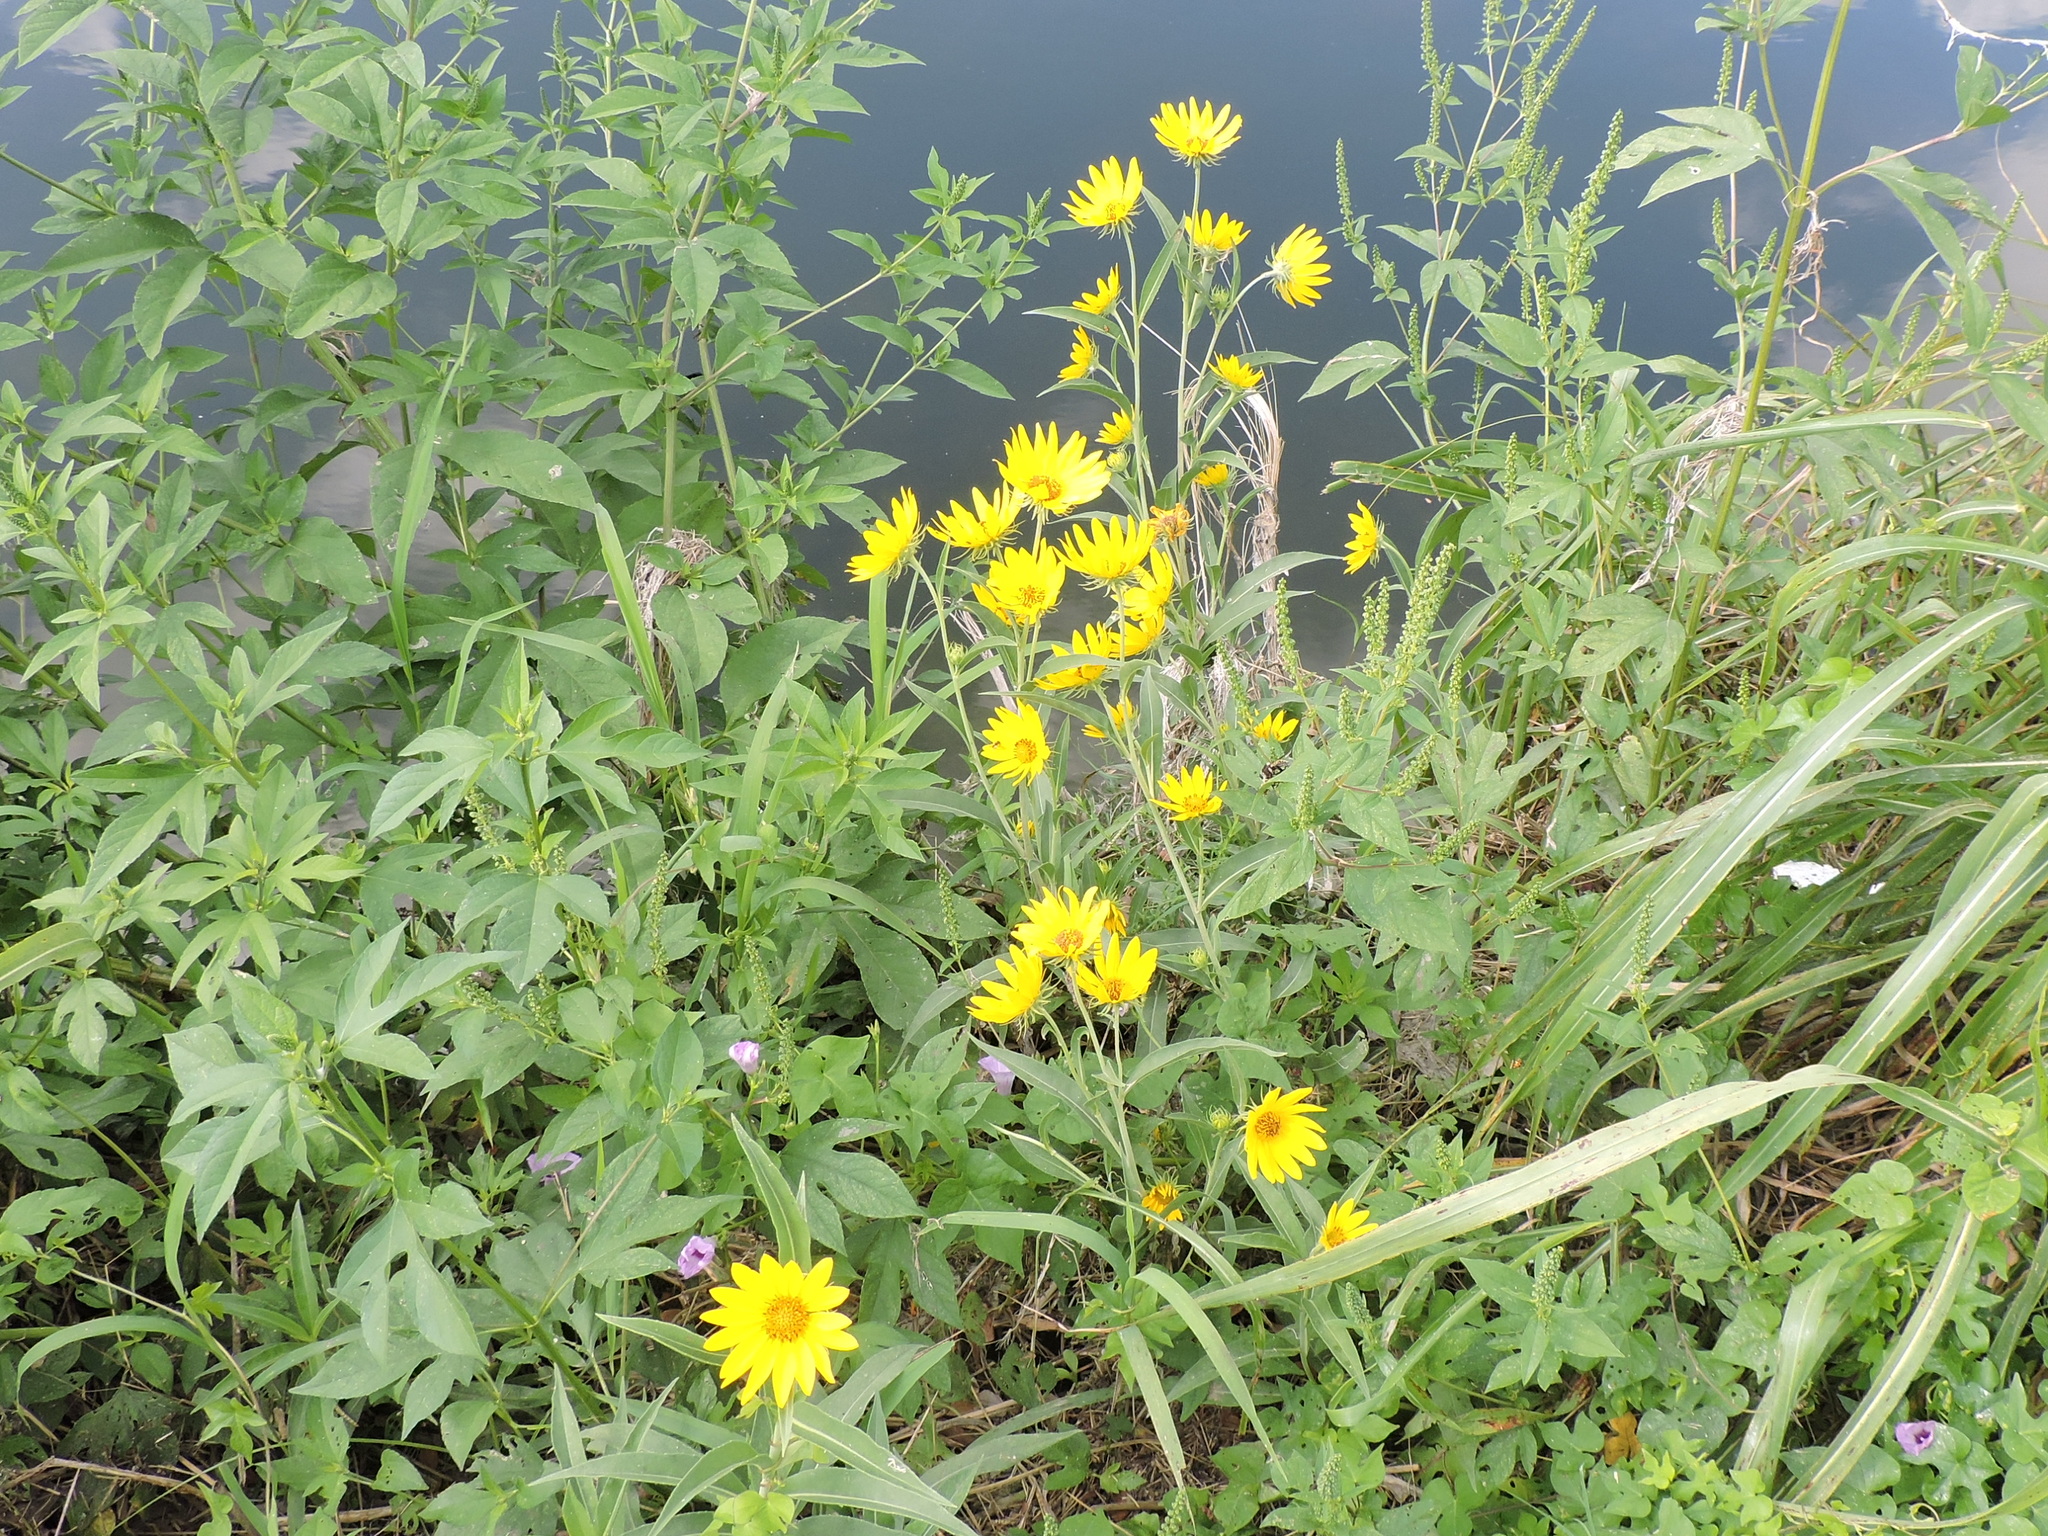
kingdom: Plantae
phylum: Tracheophyta
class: Magnoliopsida
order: Asterales
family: Asteraceae
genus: Helianthus
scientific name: Helianthus maximiliani
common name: Maximilian's sunflower
